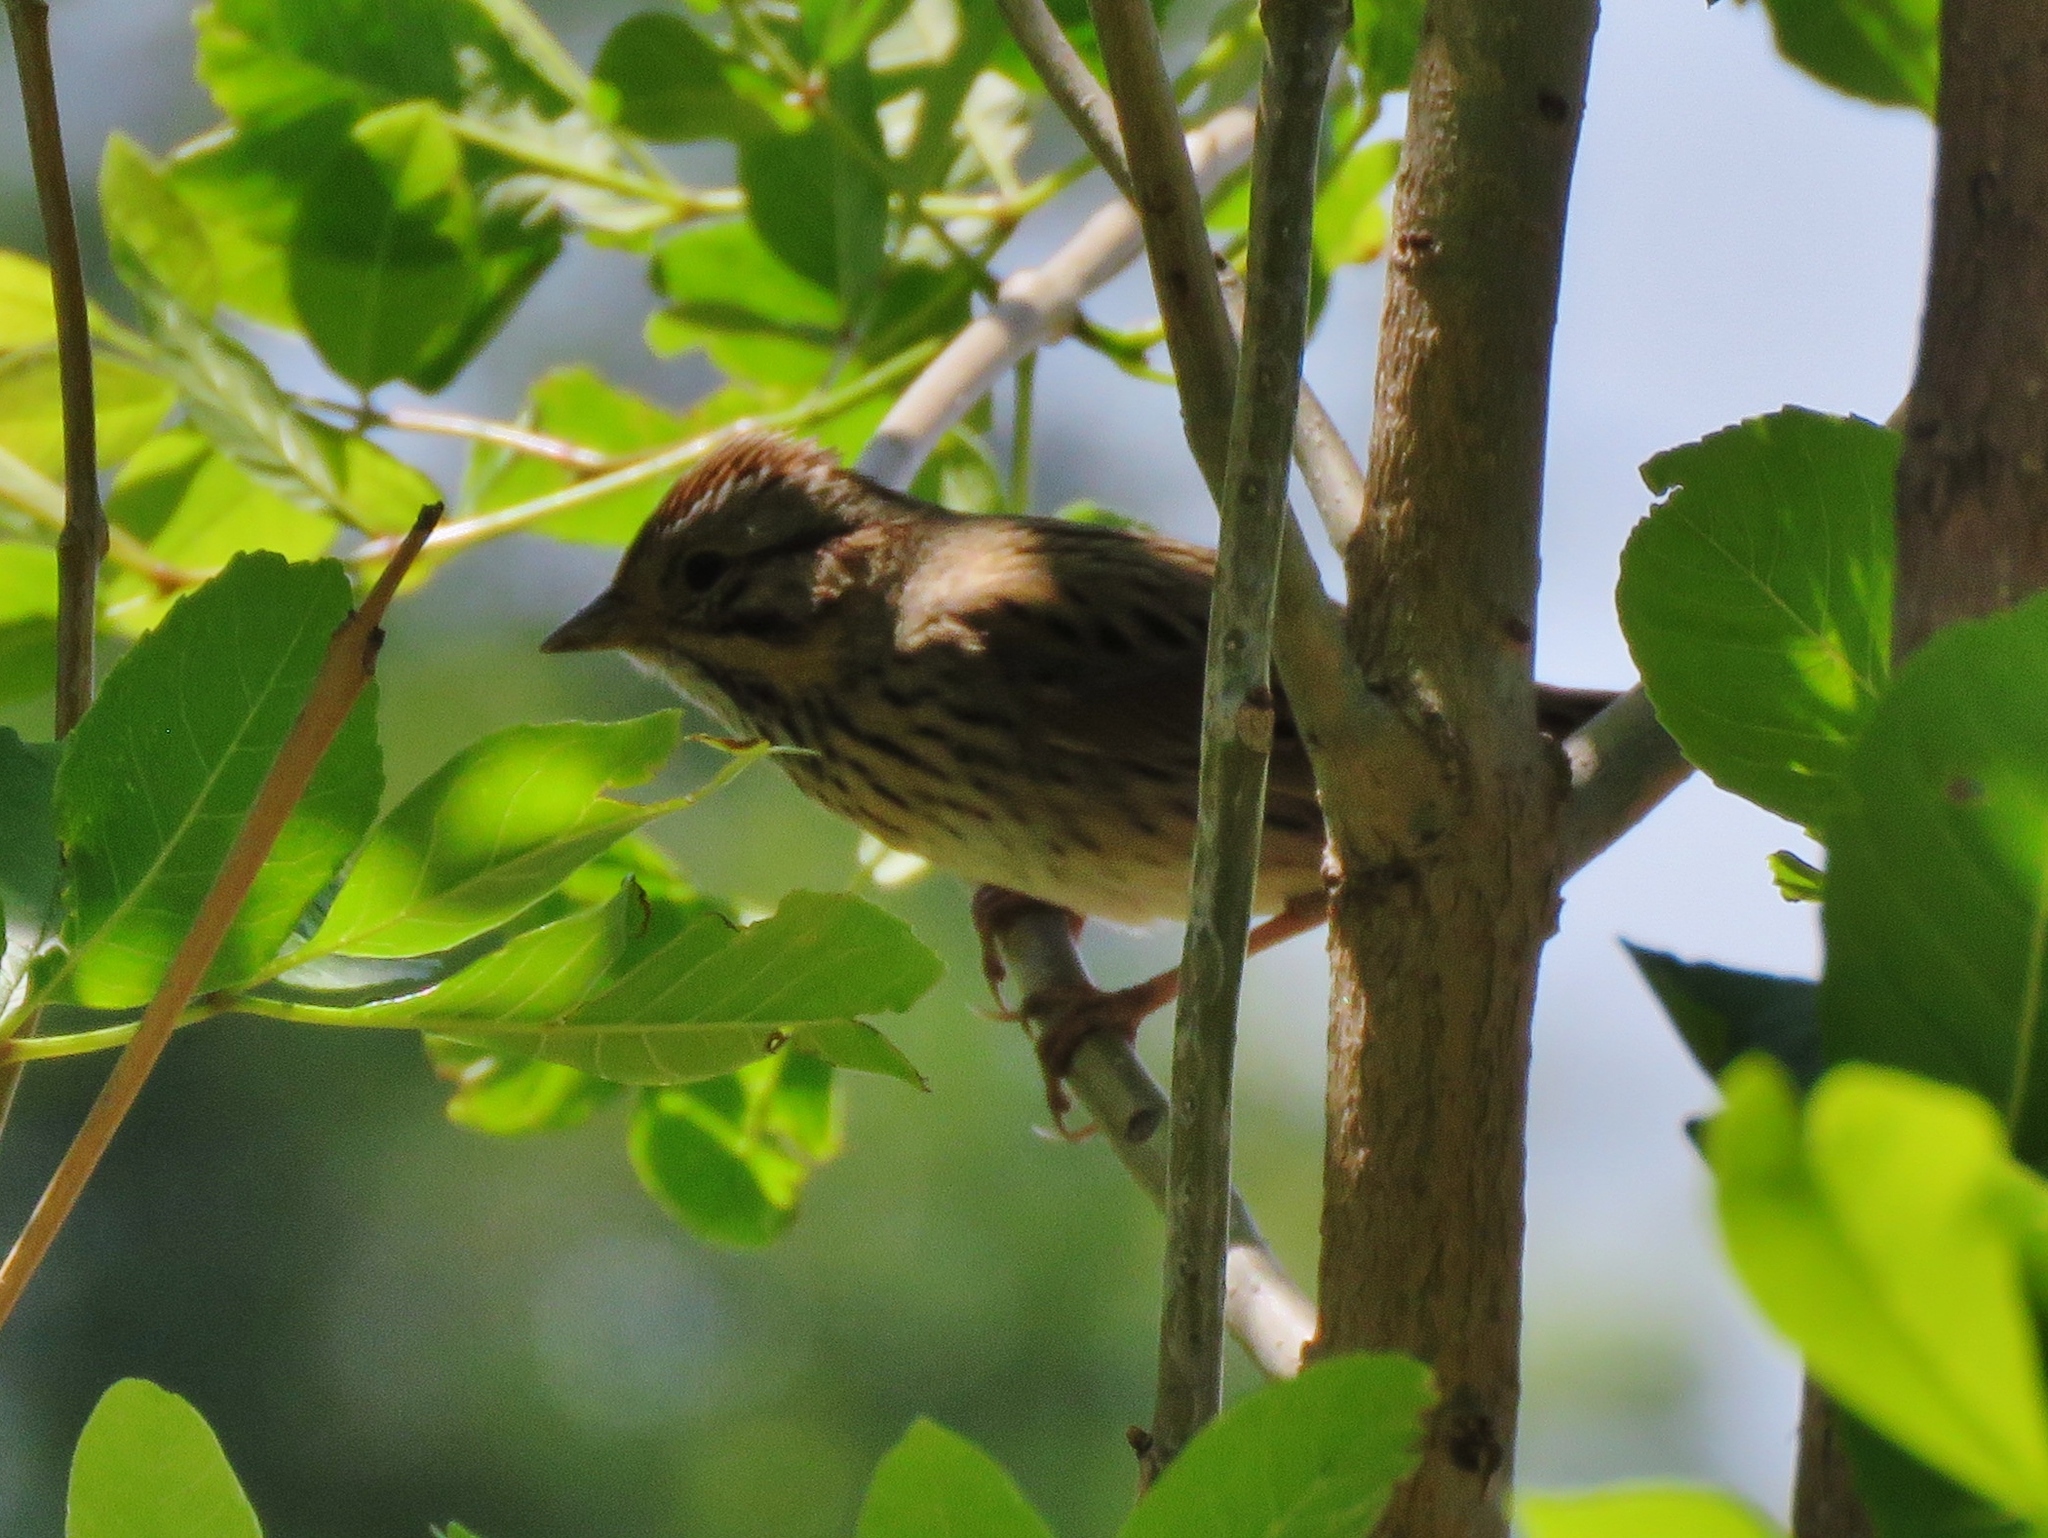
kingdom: Animalia
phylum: Chordata
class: Aves
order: Passeriformes
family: Passerellidae
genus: Melospiza
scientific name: Melospiza lincolnii
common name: Lincoln's sparrow
